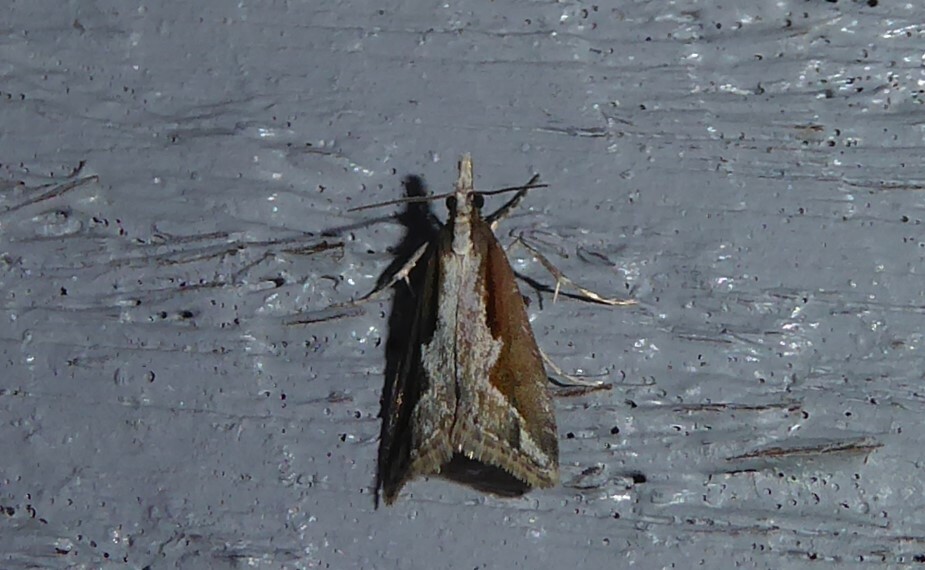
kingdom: Animalia
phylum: Arthropoda
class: Insecta
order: Lepidoptera
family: Crambidae
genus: Eudonia
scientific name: Eudonia steropaea
